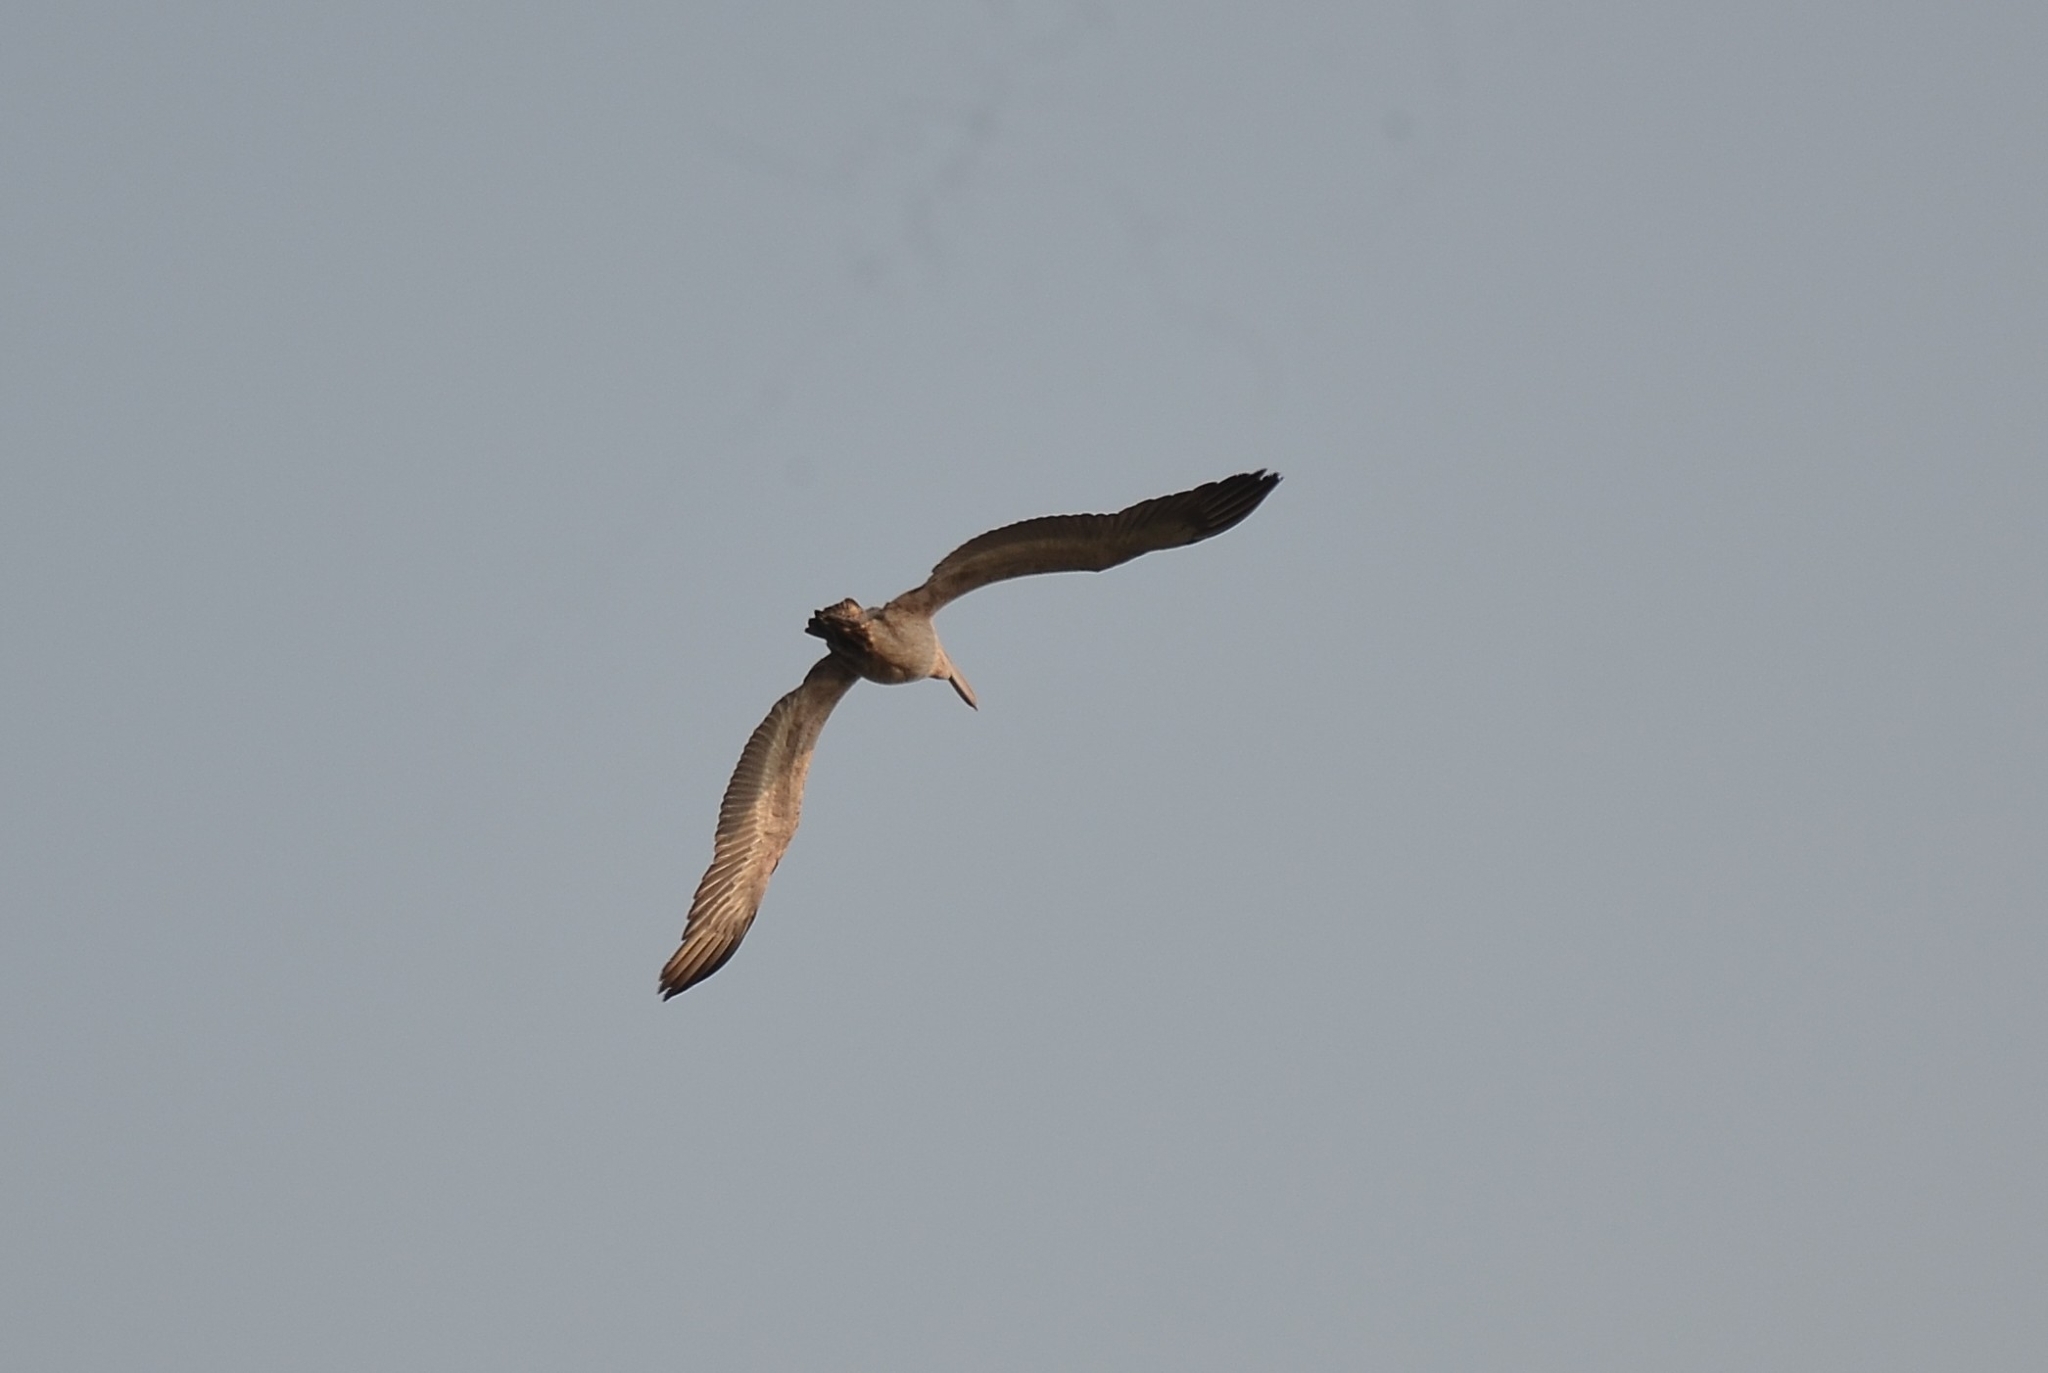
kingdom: Animalia
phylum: Chordata
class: Aves
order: Pelecaniformes
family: Pelecanidae
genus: Pelecanus
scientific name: Pelecanus philippensis
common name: Spot-billed pelican
